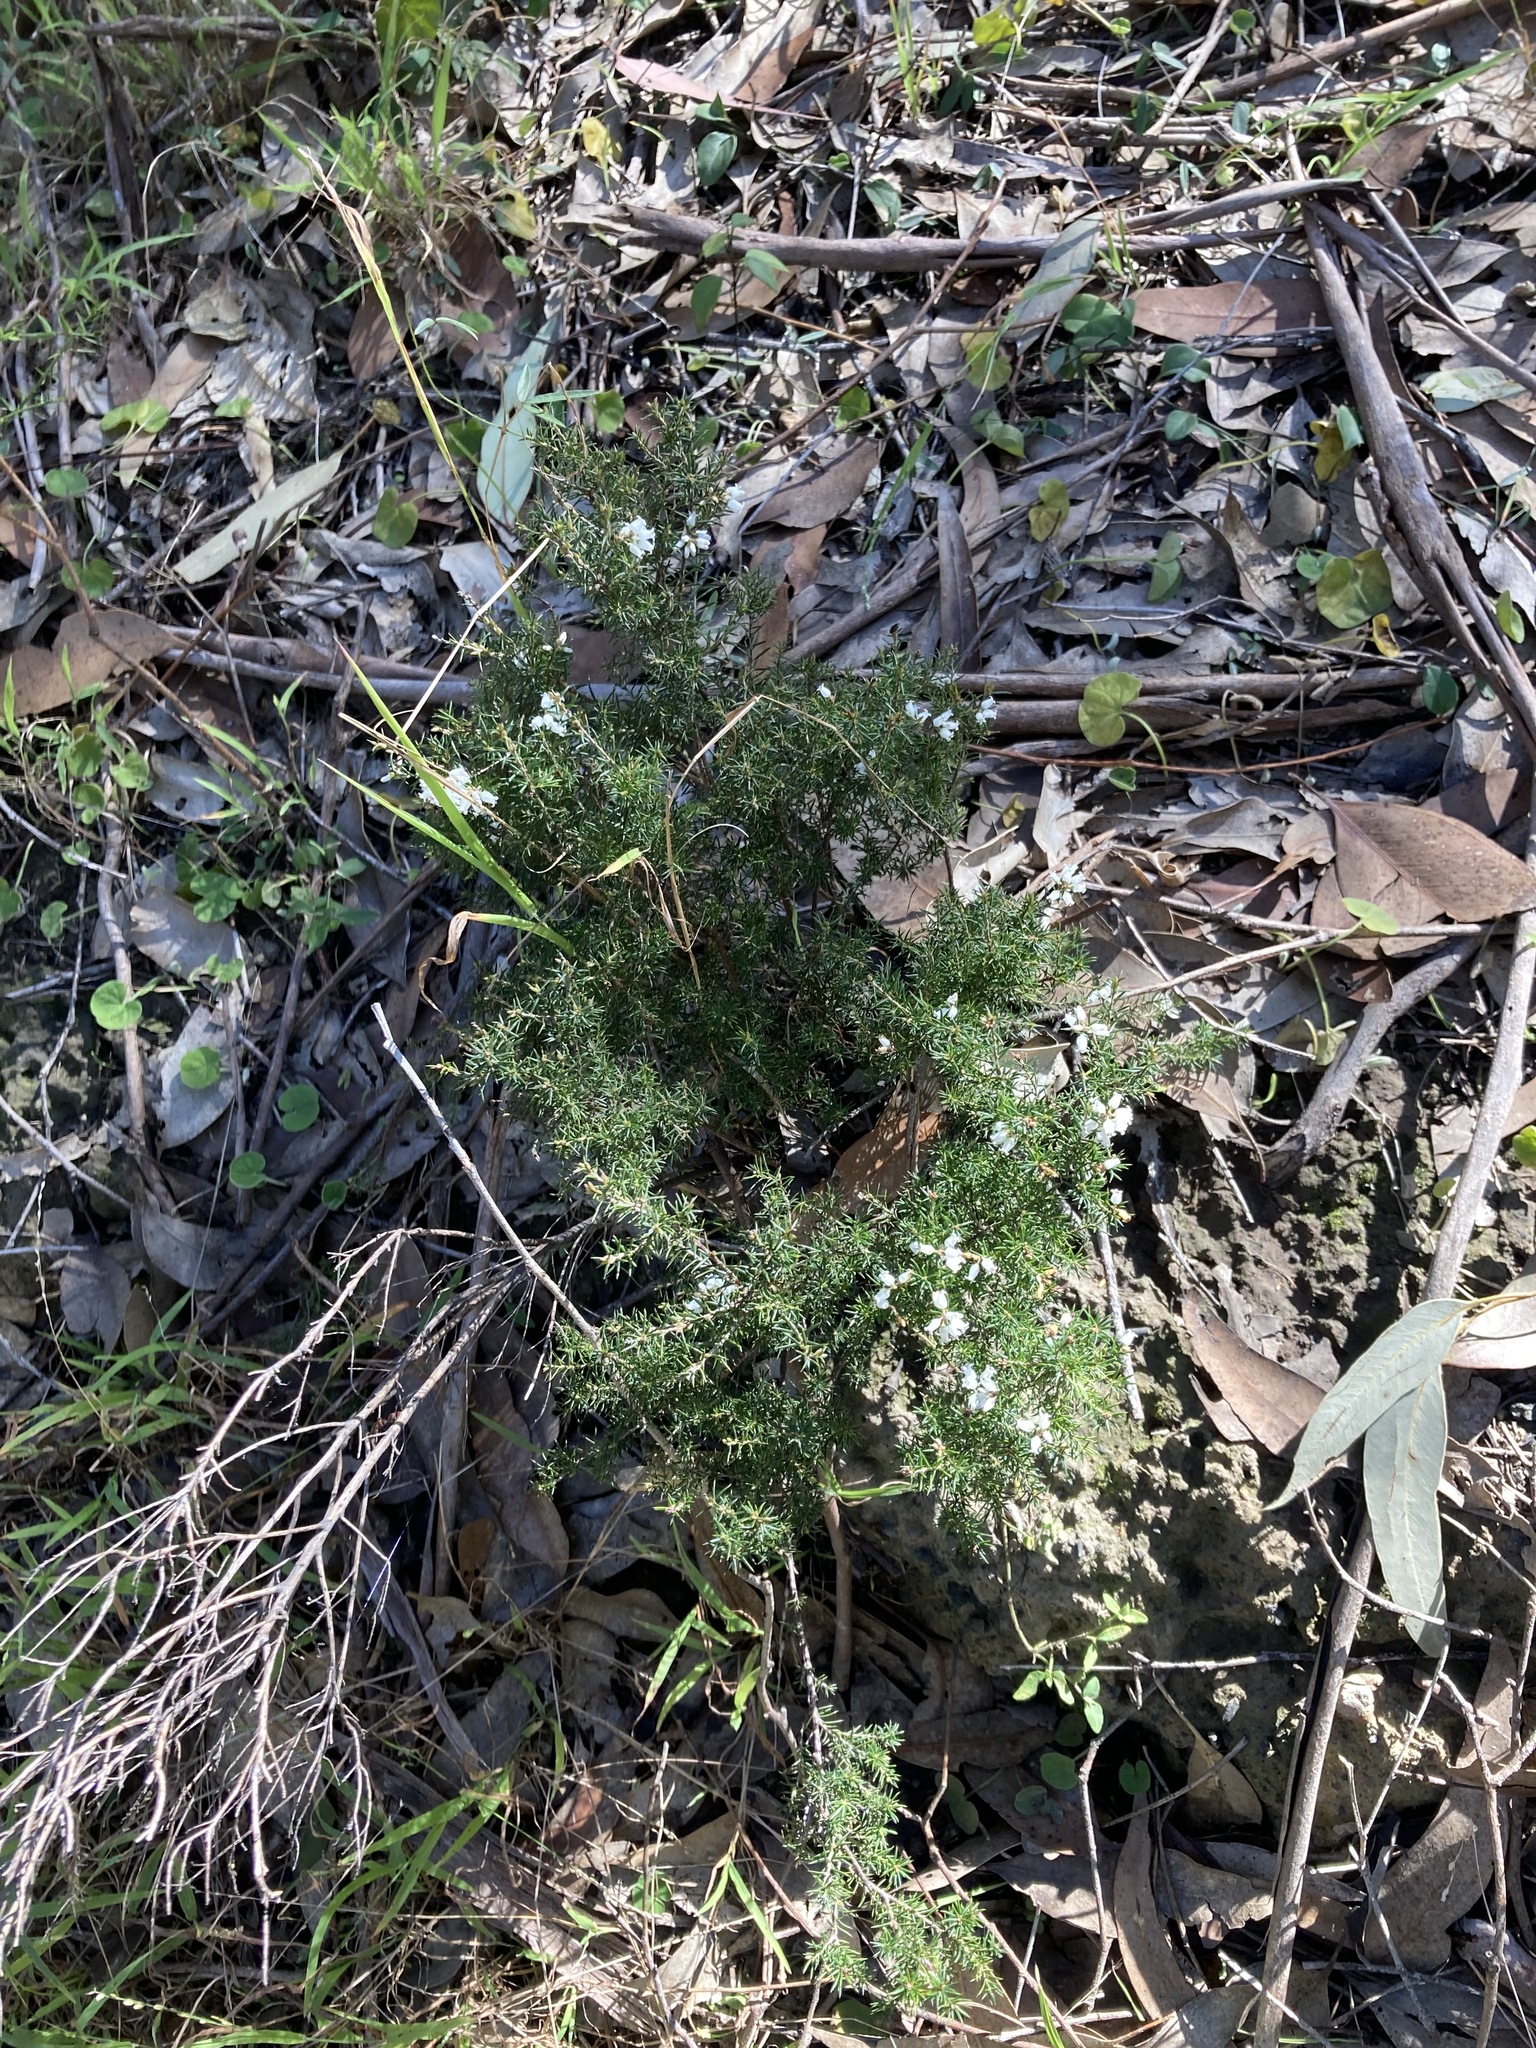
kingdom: Plantae
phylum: Tracheophyta
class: Magnoliopsida
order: Ericales
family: Ericaceae
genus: Lissanthe
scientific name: Lissanthe strigosa
